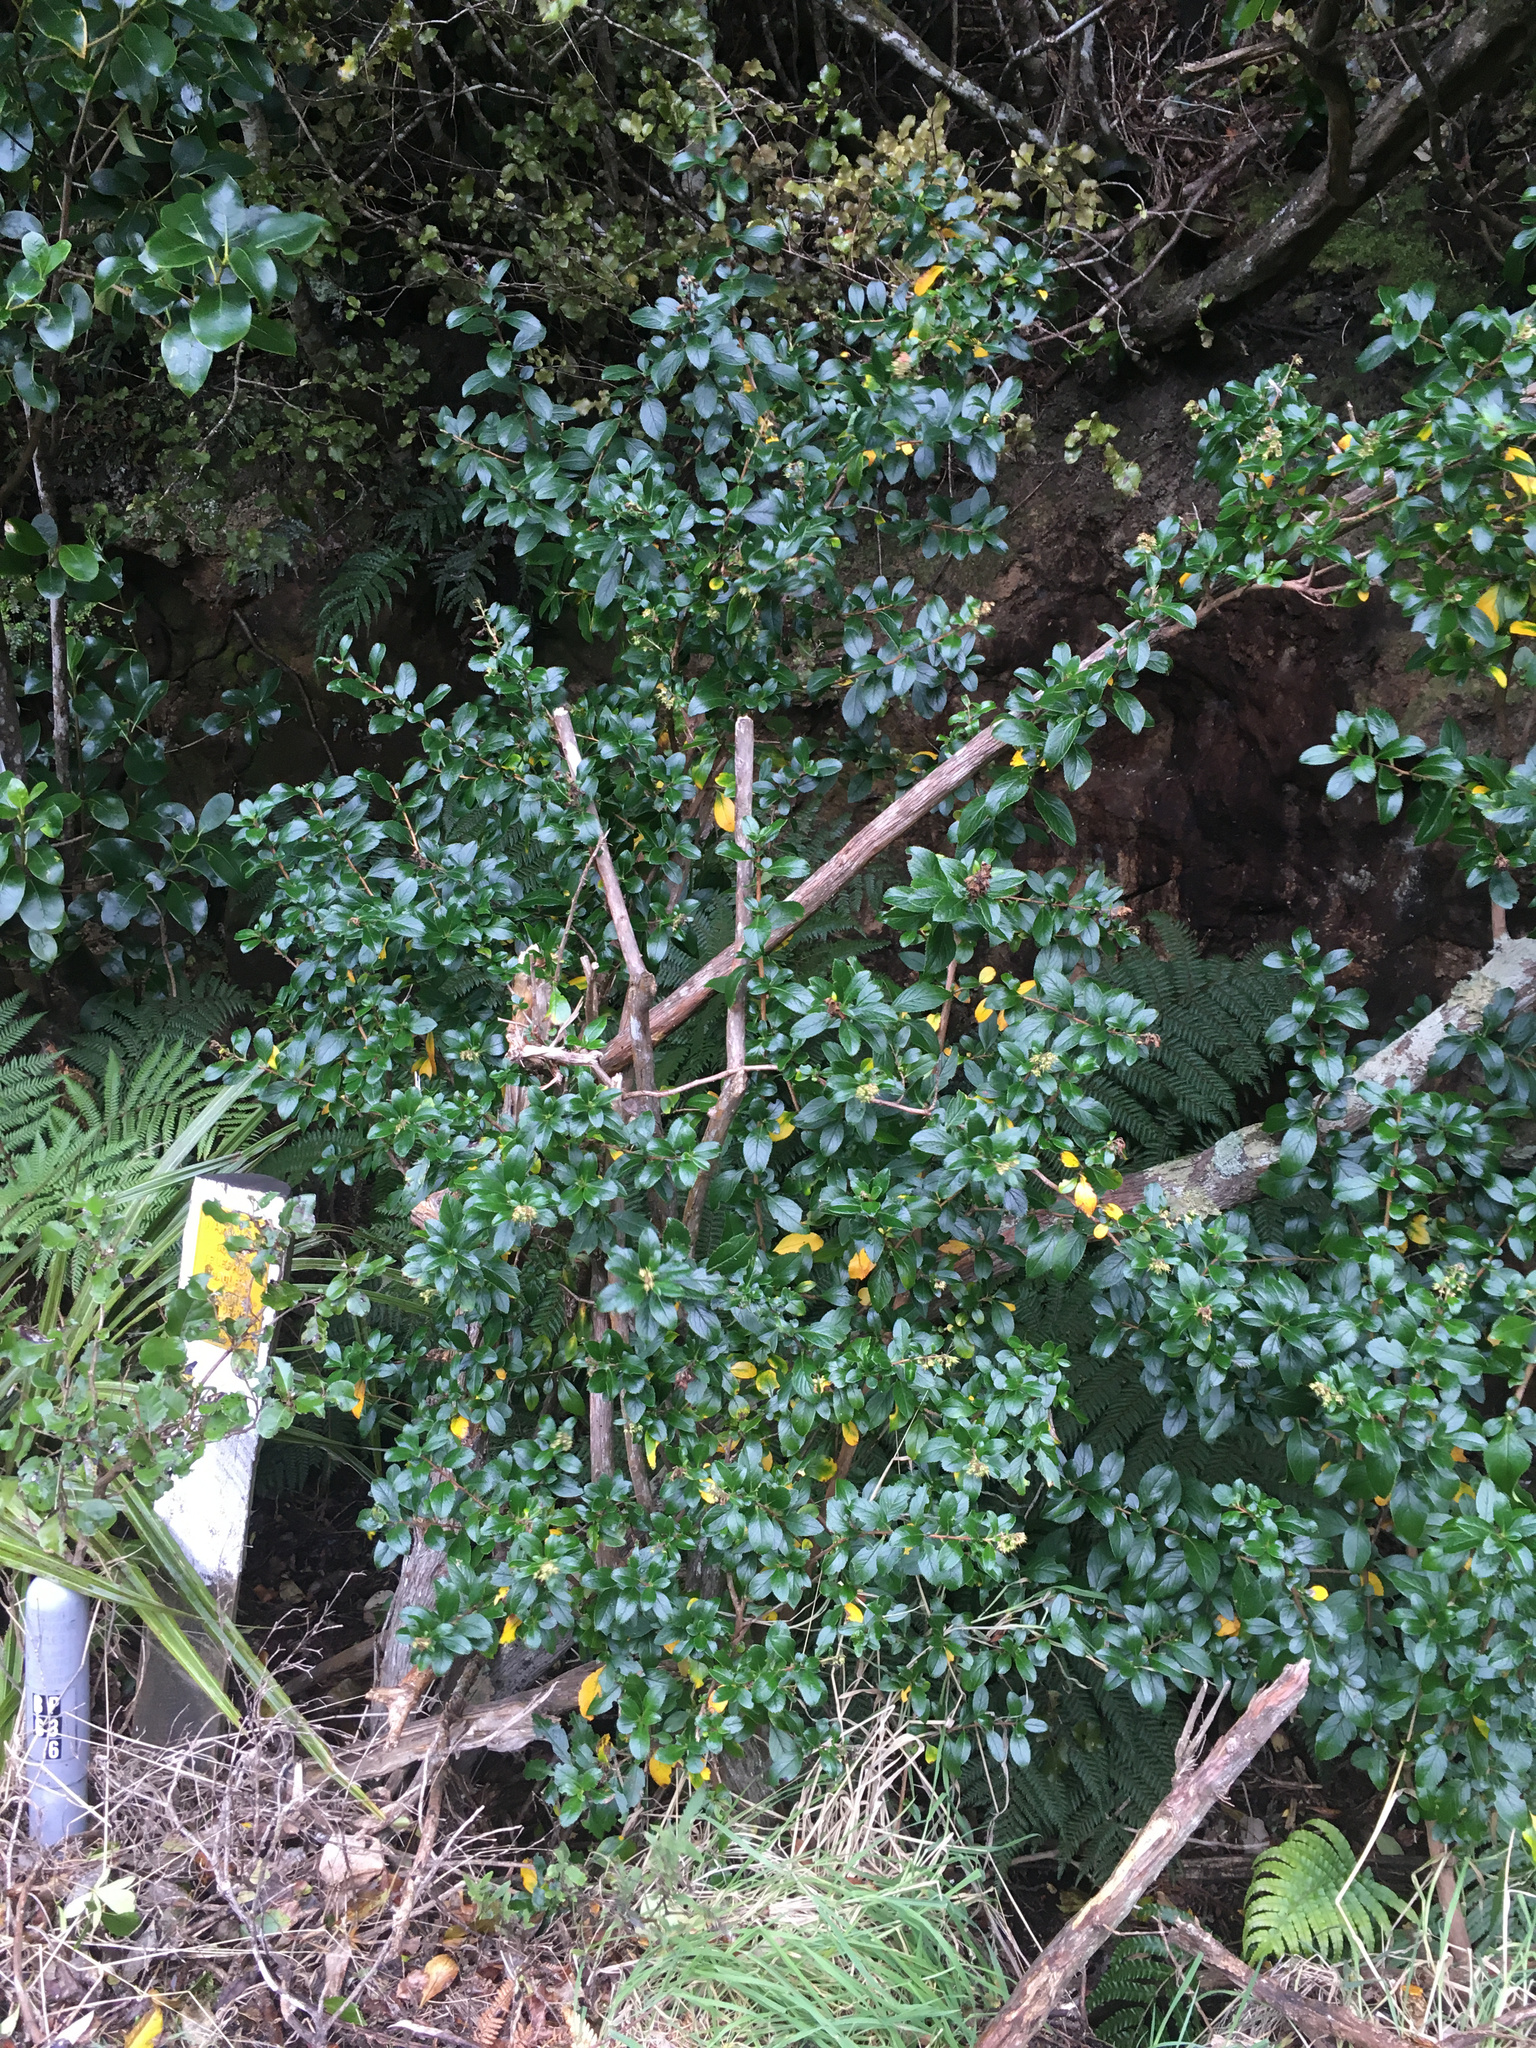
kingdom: Plantae
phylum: Tracheophyta
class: Magnoliopsida
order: Escalloniales
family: Escalloniaceae
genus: Escallonia
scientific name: Escallonia rubra
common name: Redclaws
